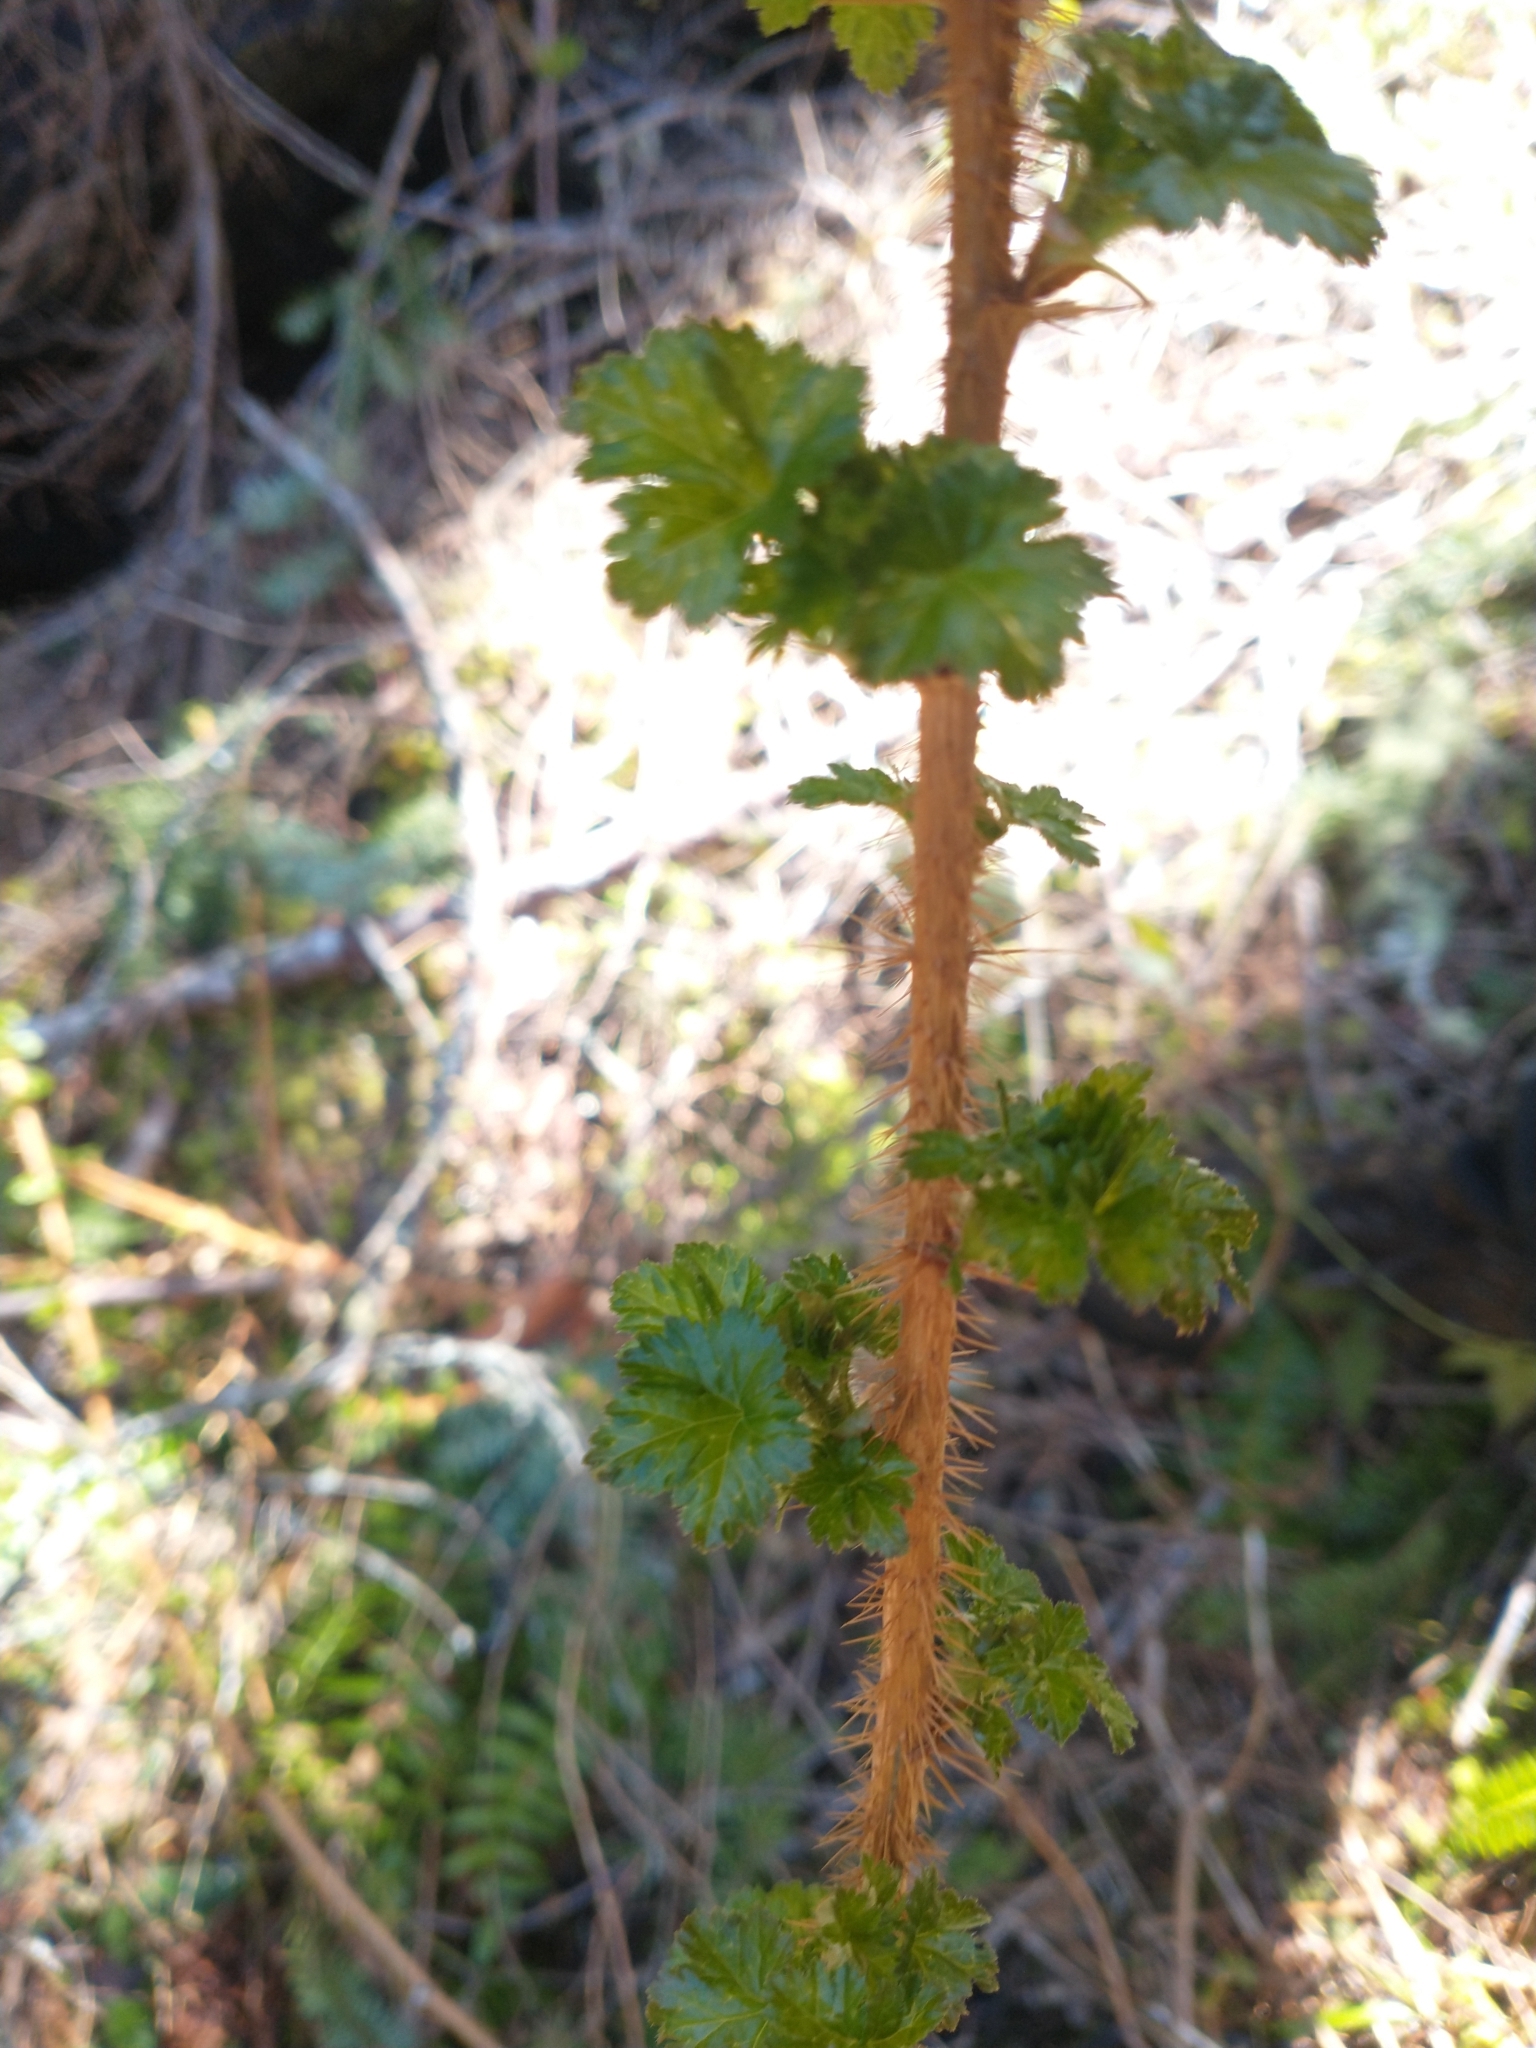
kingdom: Plantae
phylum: Tracheophyta
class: Magnoliopsida
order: Saxifragales
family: Grossulariaceae
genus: Ribes
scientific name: Ribes lacustre
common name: Black gooseberry
